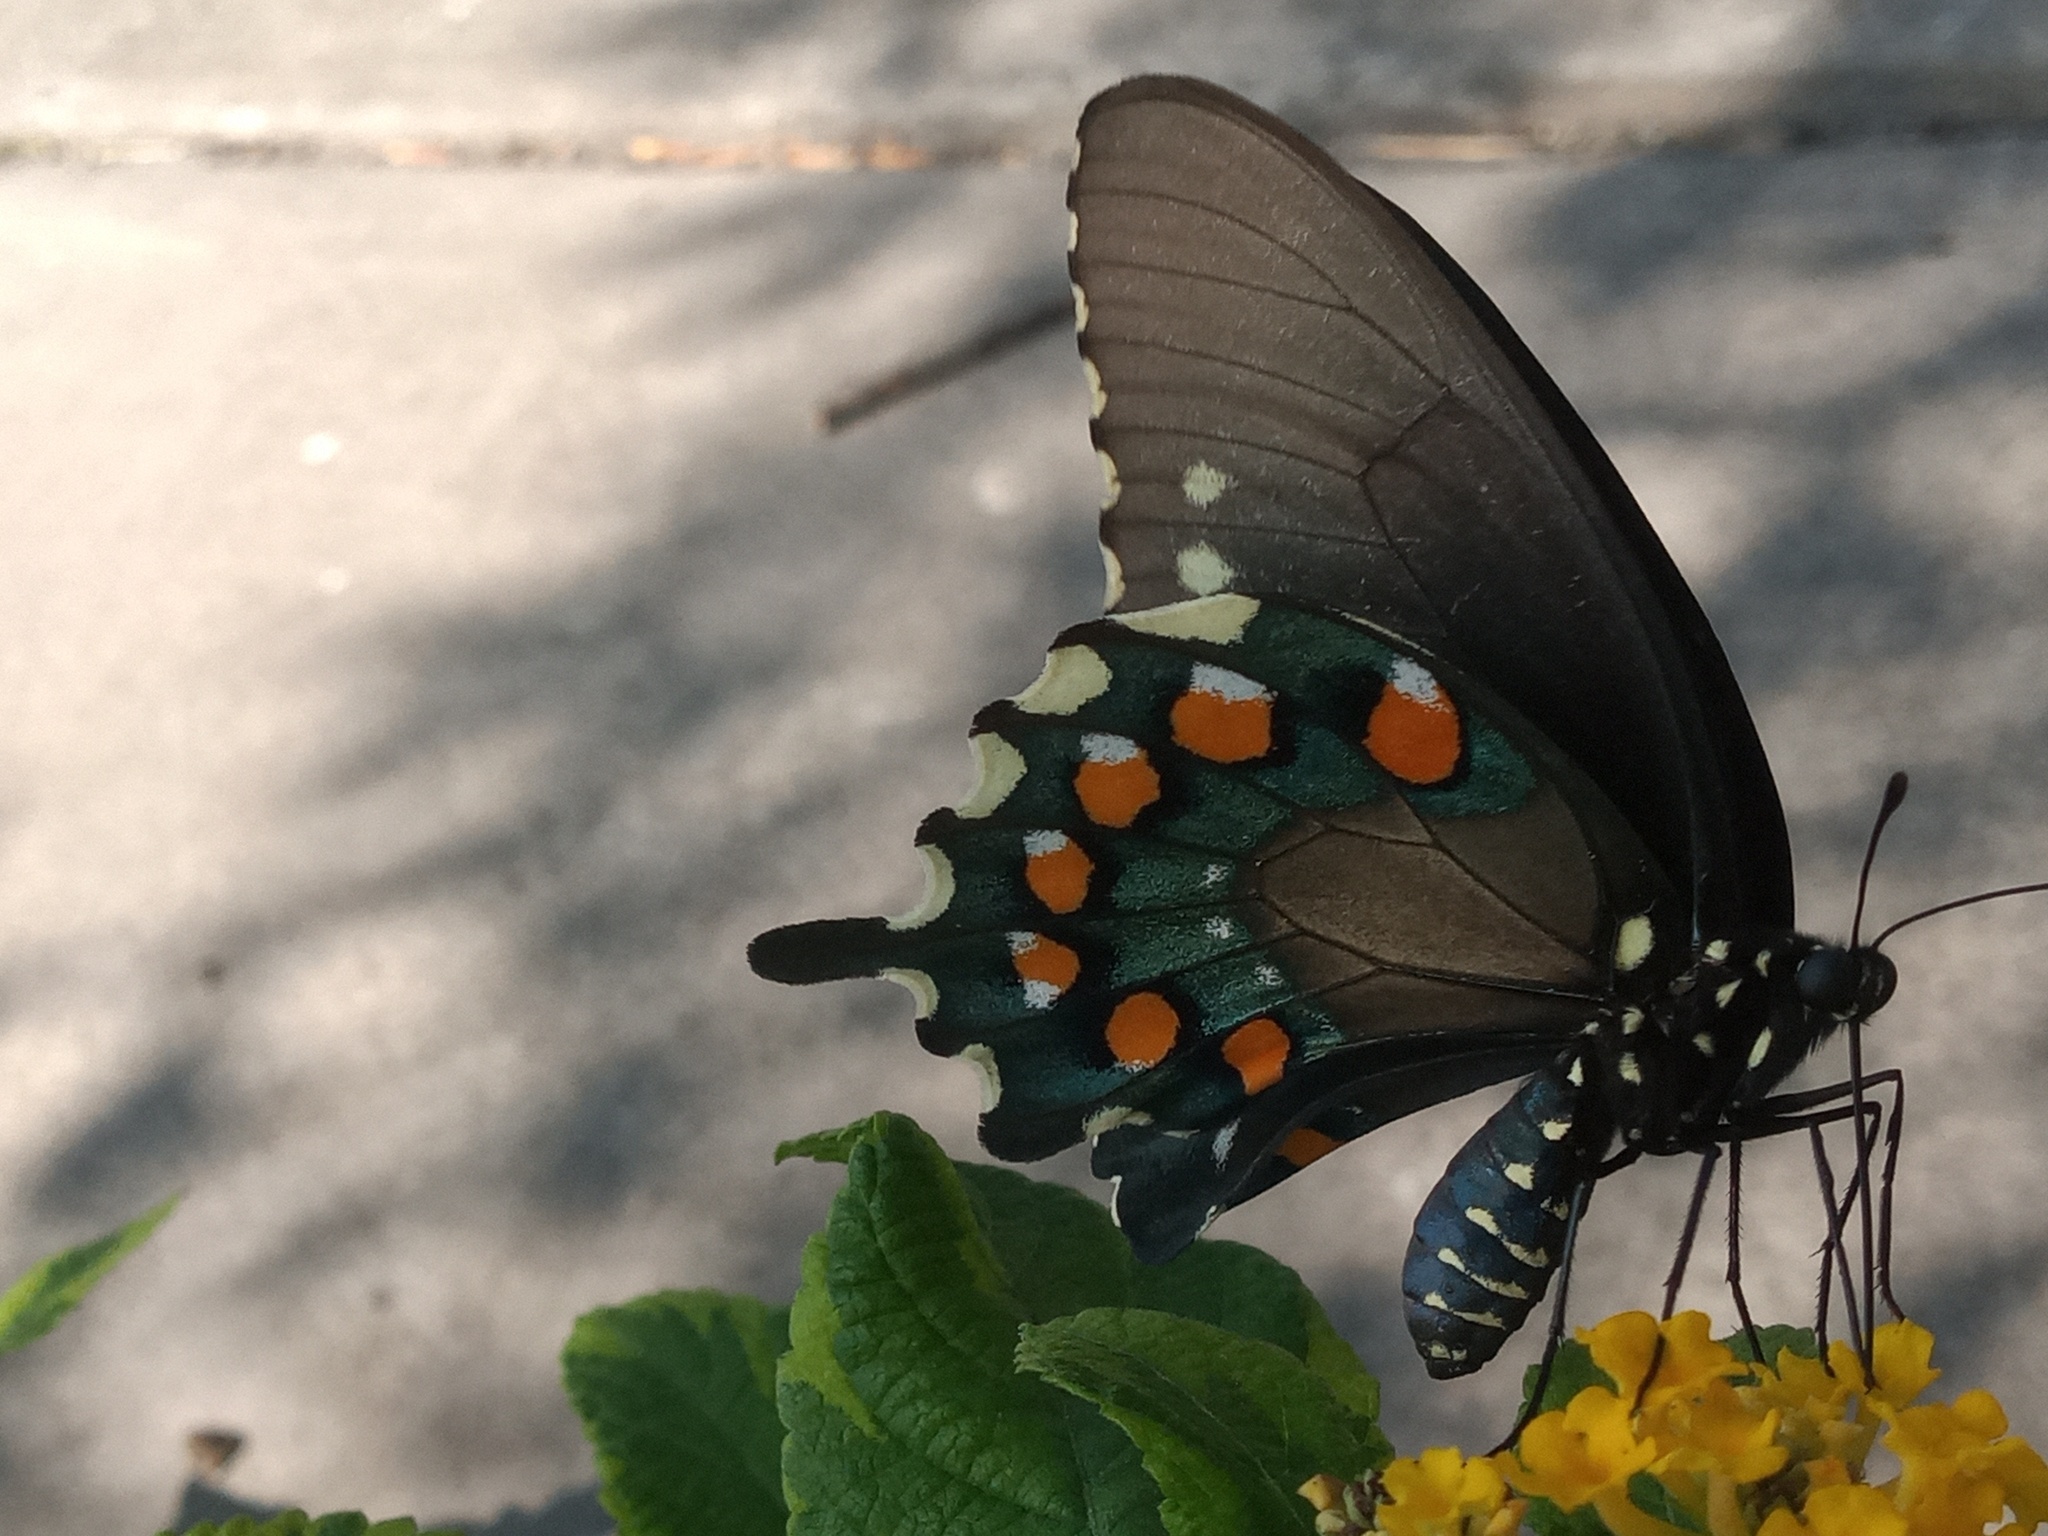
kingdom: Animalia
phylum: Arthropoda
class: Insecta
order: Lepidoptera
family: Papilionidae
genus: Battus
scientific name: Battus philenor
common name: Pipevine swallowtail
